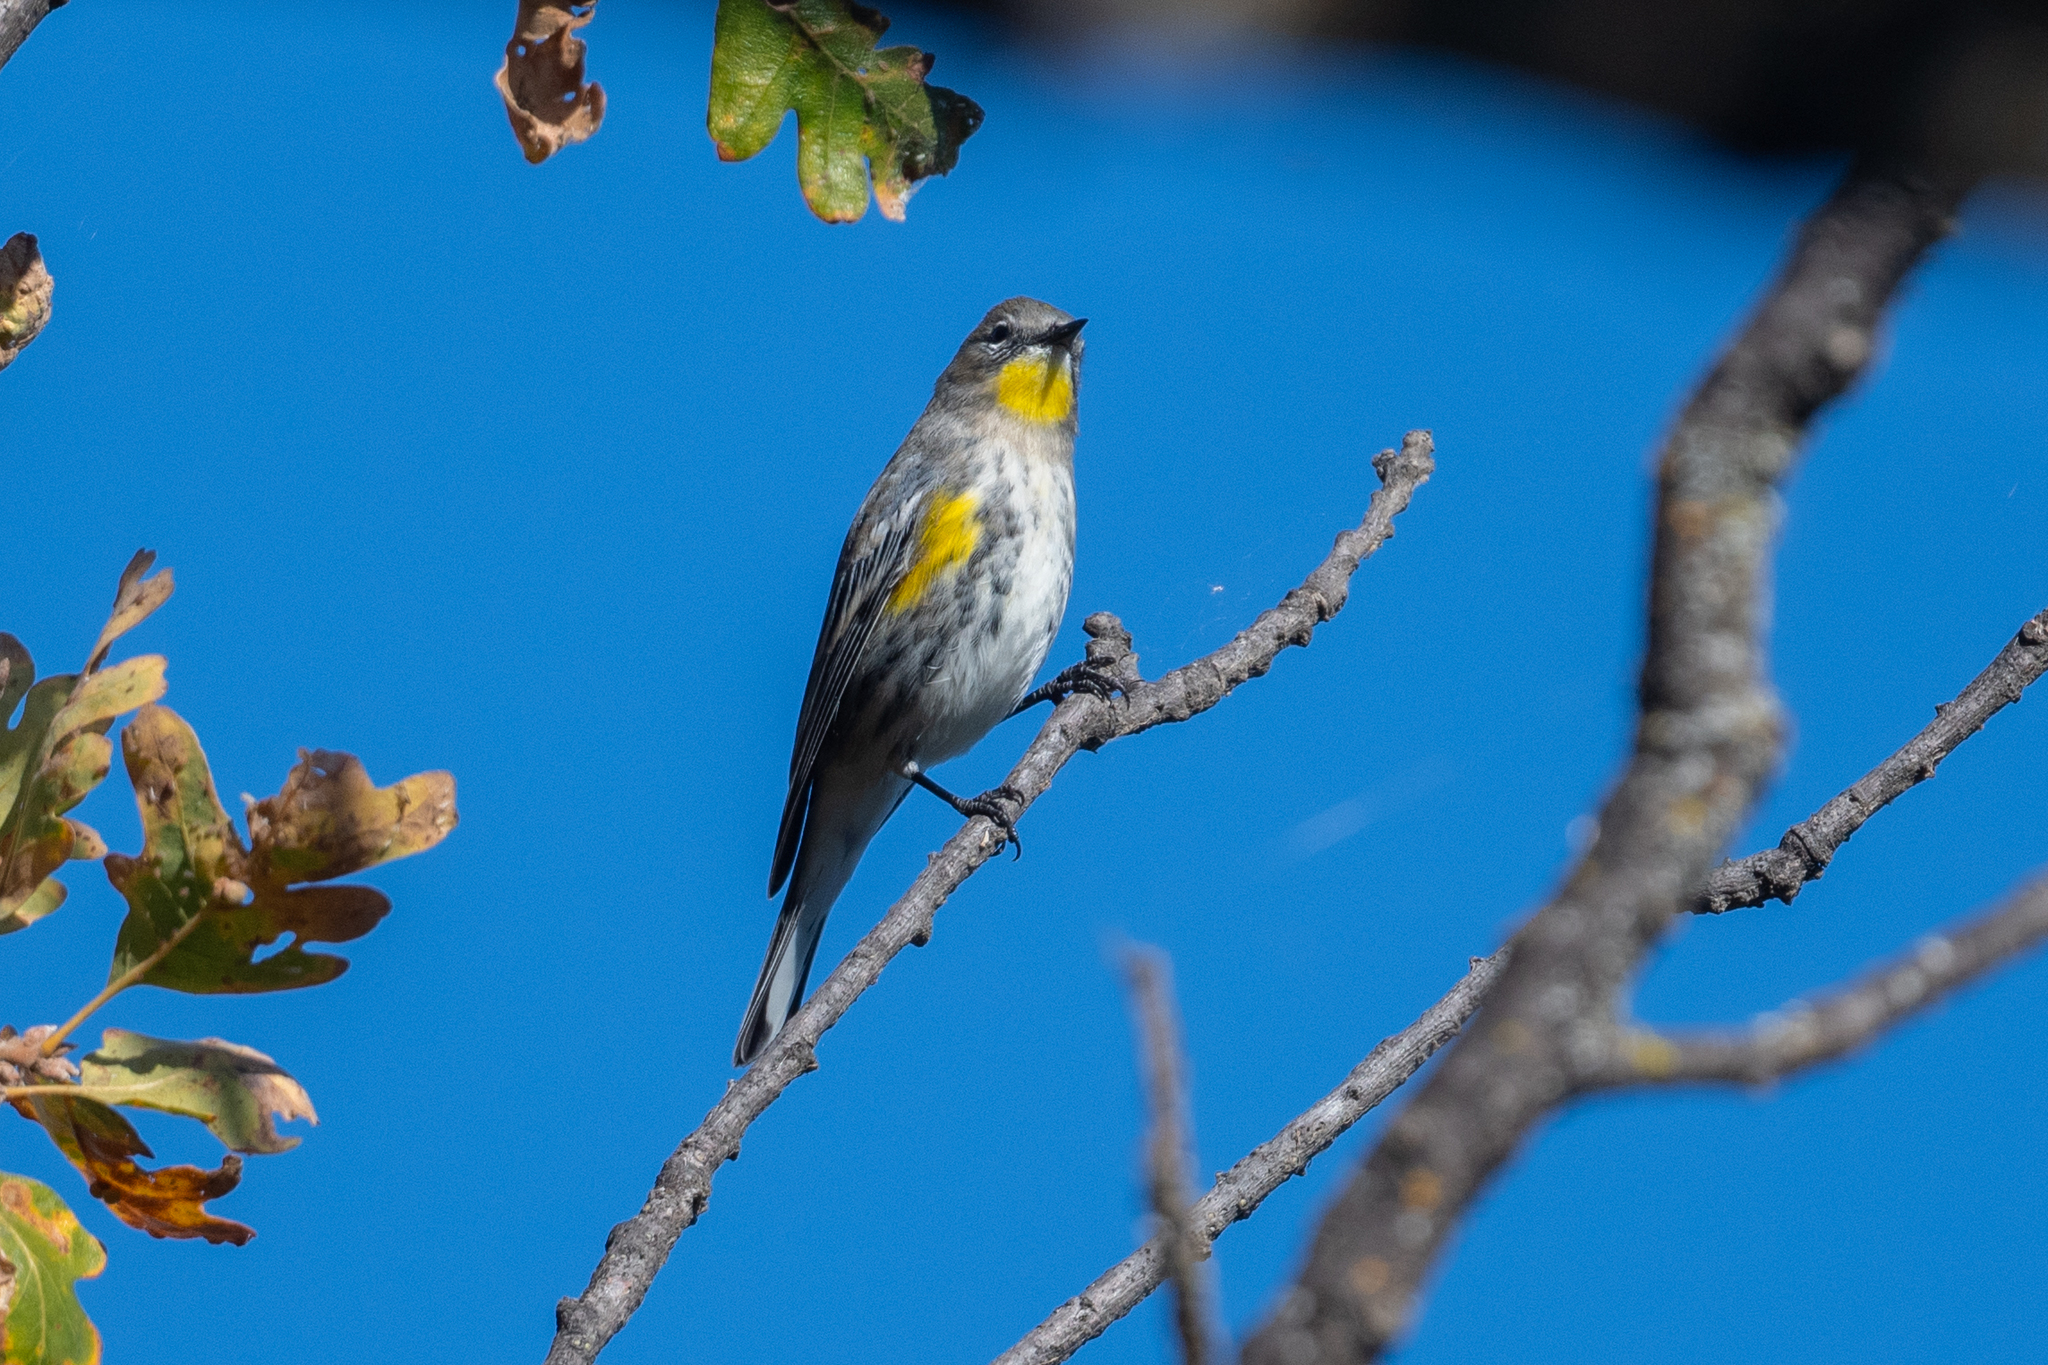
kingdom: Animalia
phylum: Chordata
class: Aves
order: Passeriformes
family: Parulidae
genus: Setophaga
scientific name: Setophaga coronata
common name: Myrtle warbler
